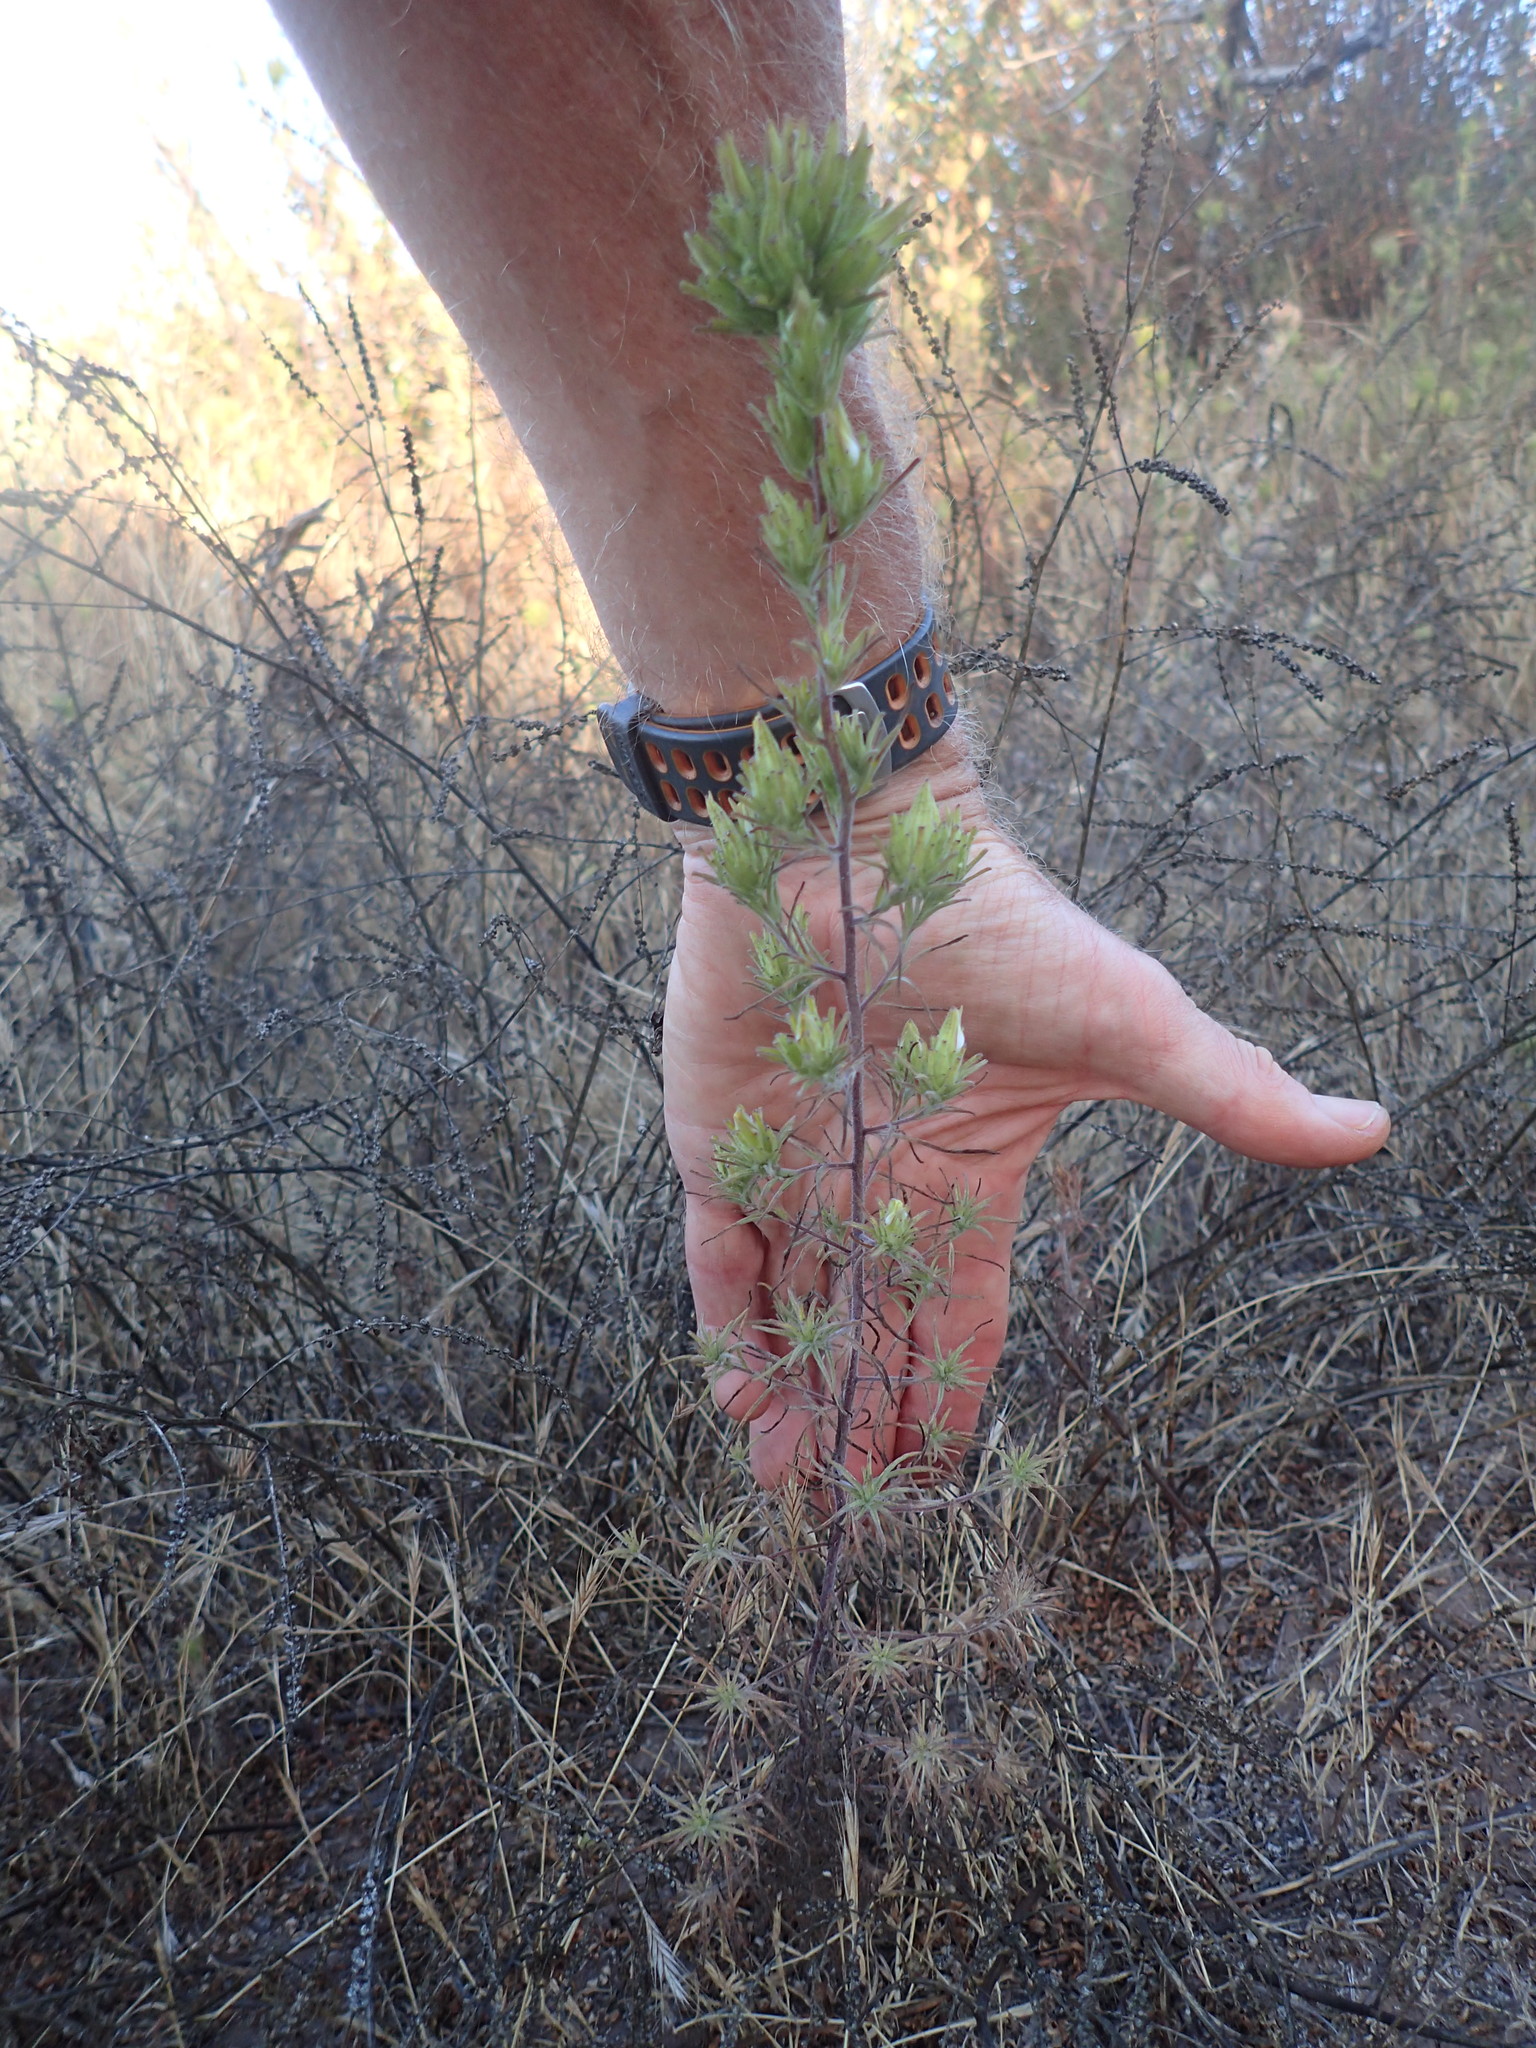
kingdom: Plantae
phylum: Tracheophyta
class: Magnoliopsida
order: Lamiales
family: Orobanchaceae
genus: Cordylanthus
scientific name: Cordylanthus rigidus
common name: Stiff-branch bird's-beak
